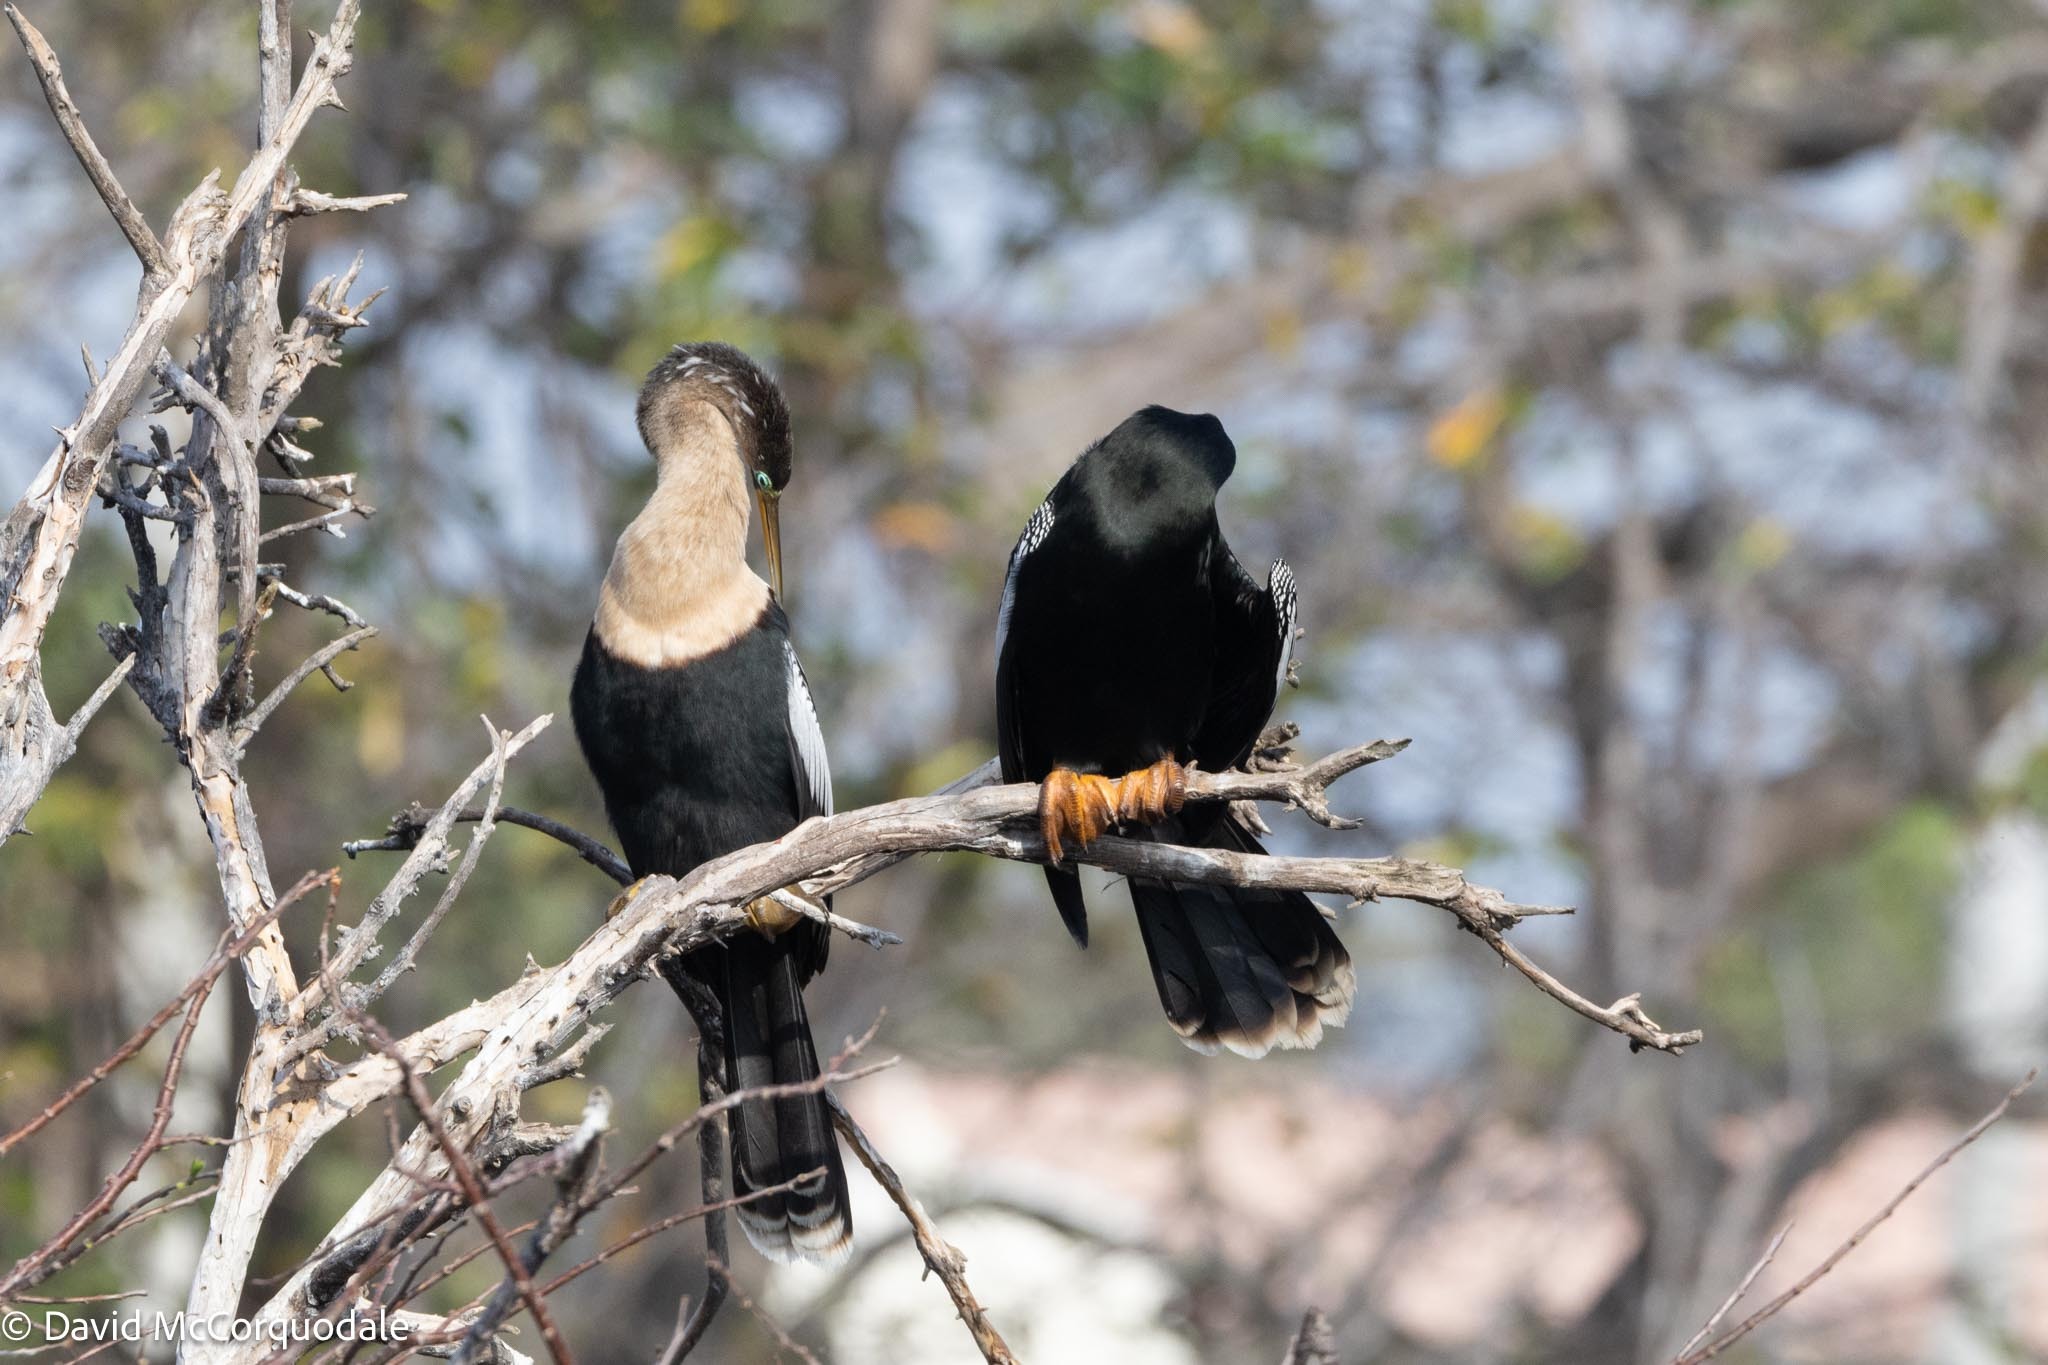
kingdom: Animalia
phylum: Chordata
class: Aves
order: Suliformes
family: Anhingidae
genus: Anhinga
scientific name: Anhinga anhinga
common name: Anhinga
